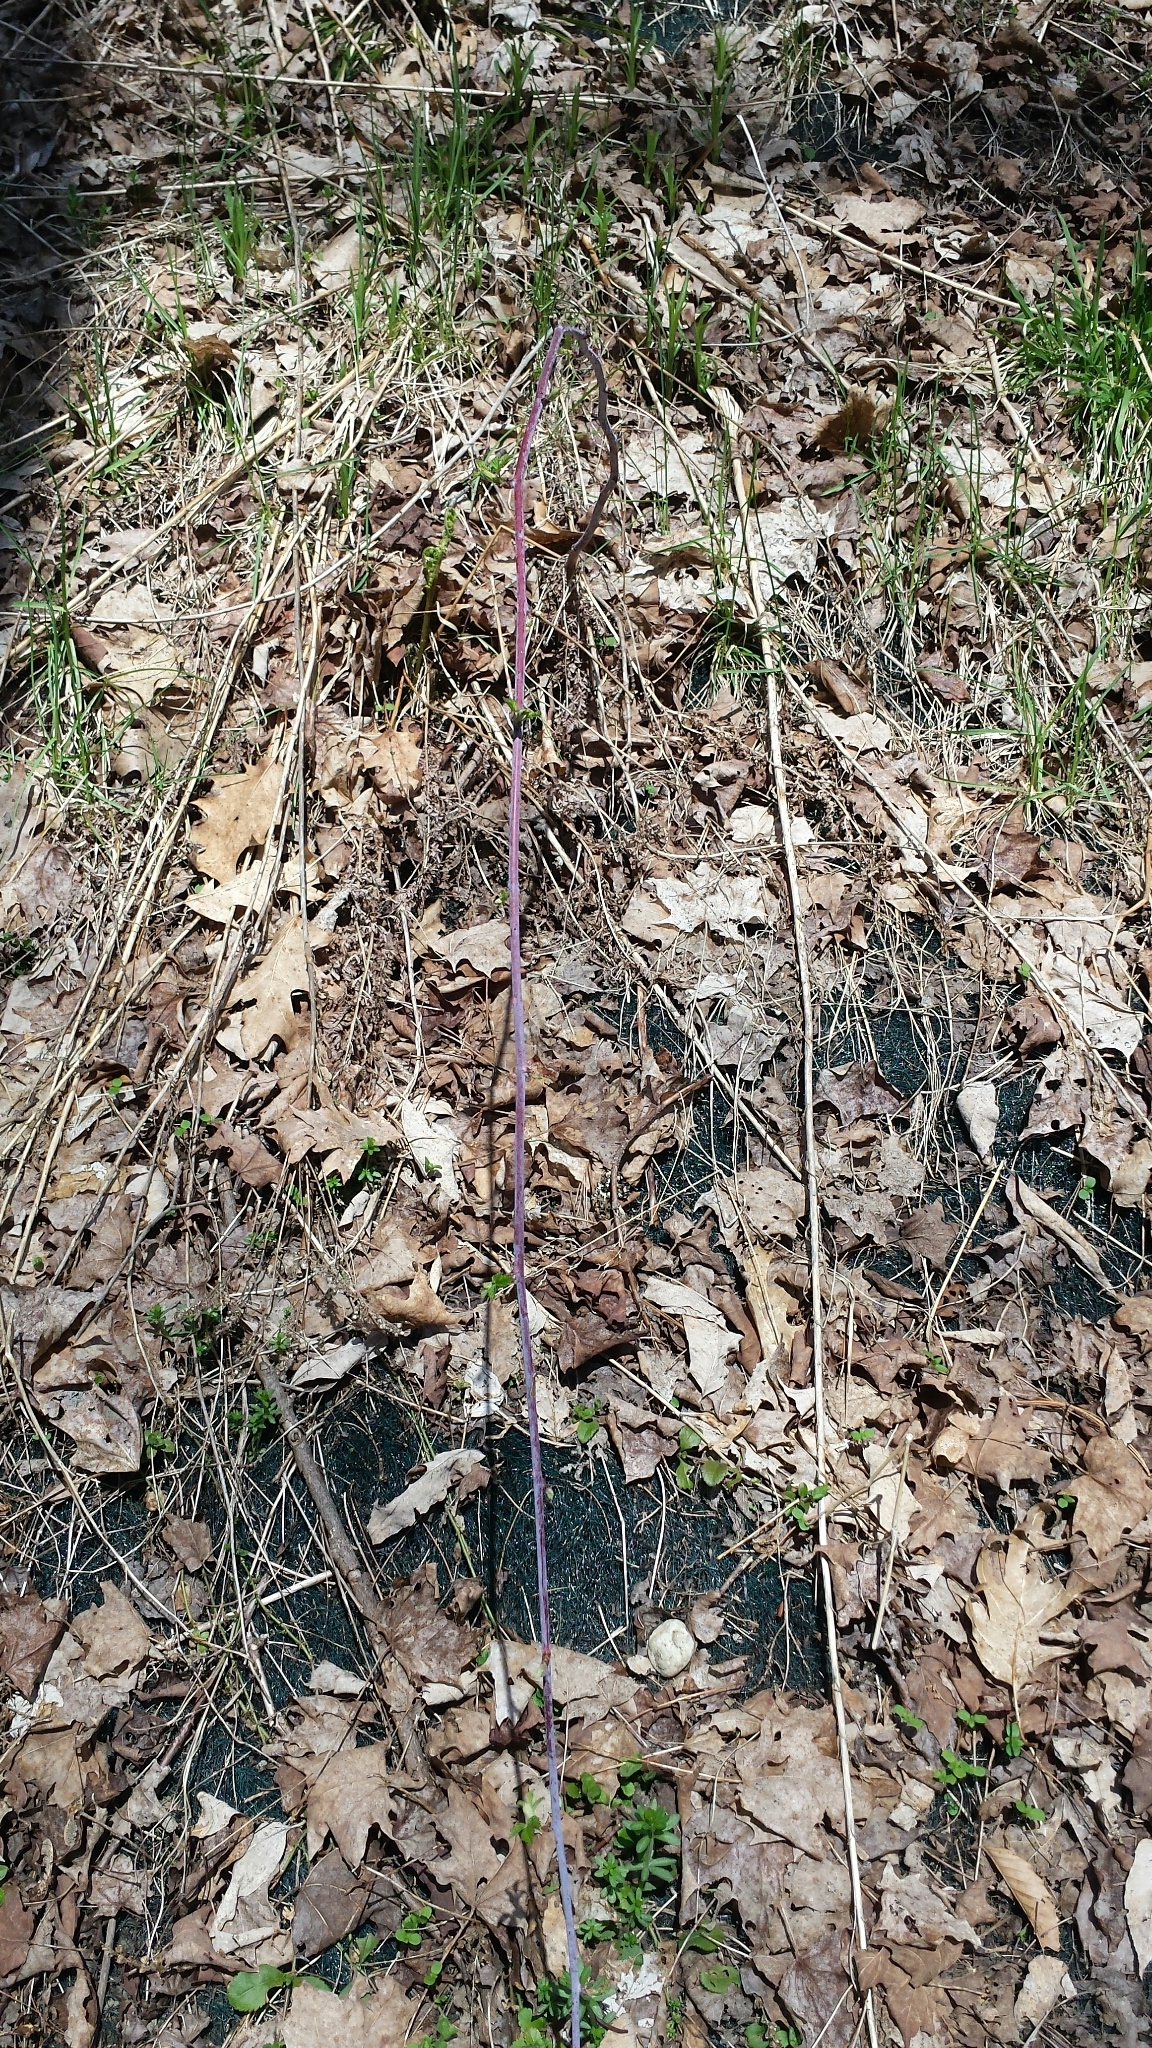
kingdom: Plantae
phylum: Tracheophyta
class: Magnoliopsida
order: Rosales
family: Rosaceae
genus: Rubus
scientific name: Rubus occidentalis
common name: Black raspberry
